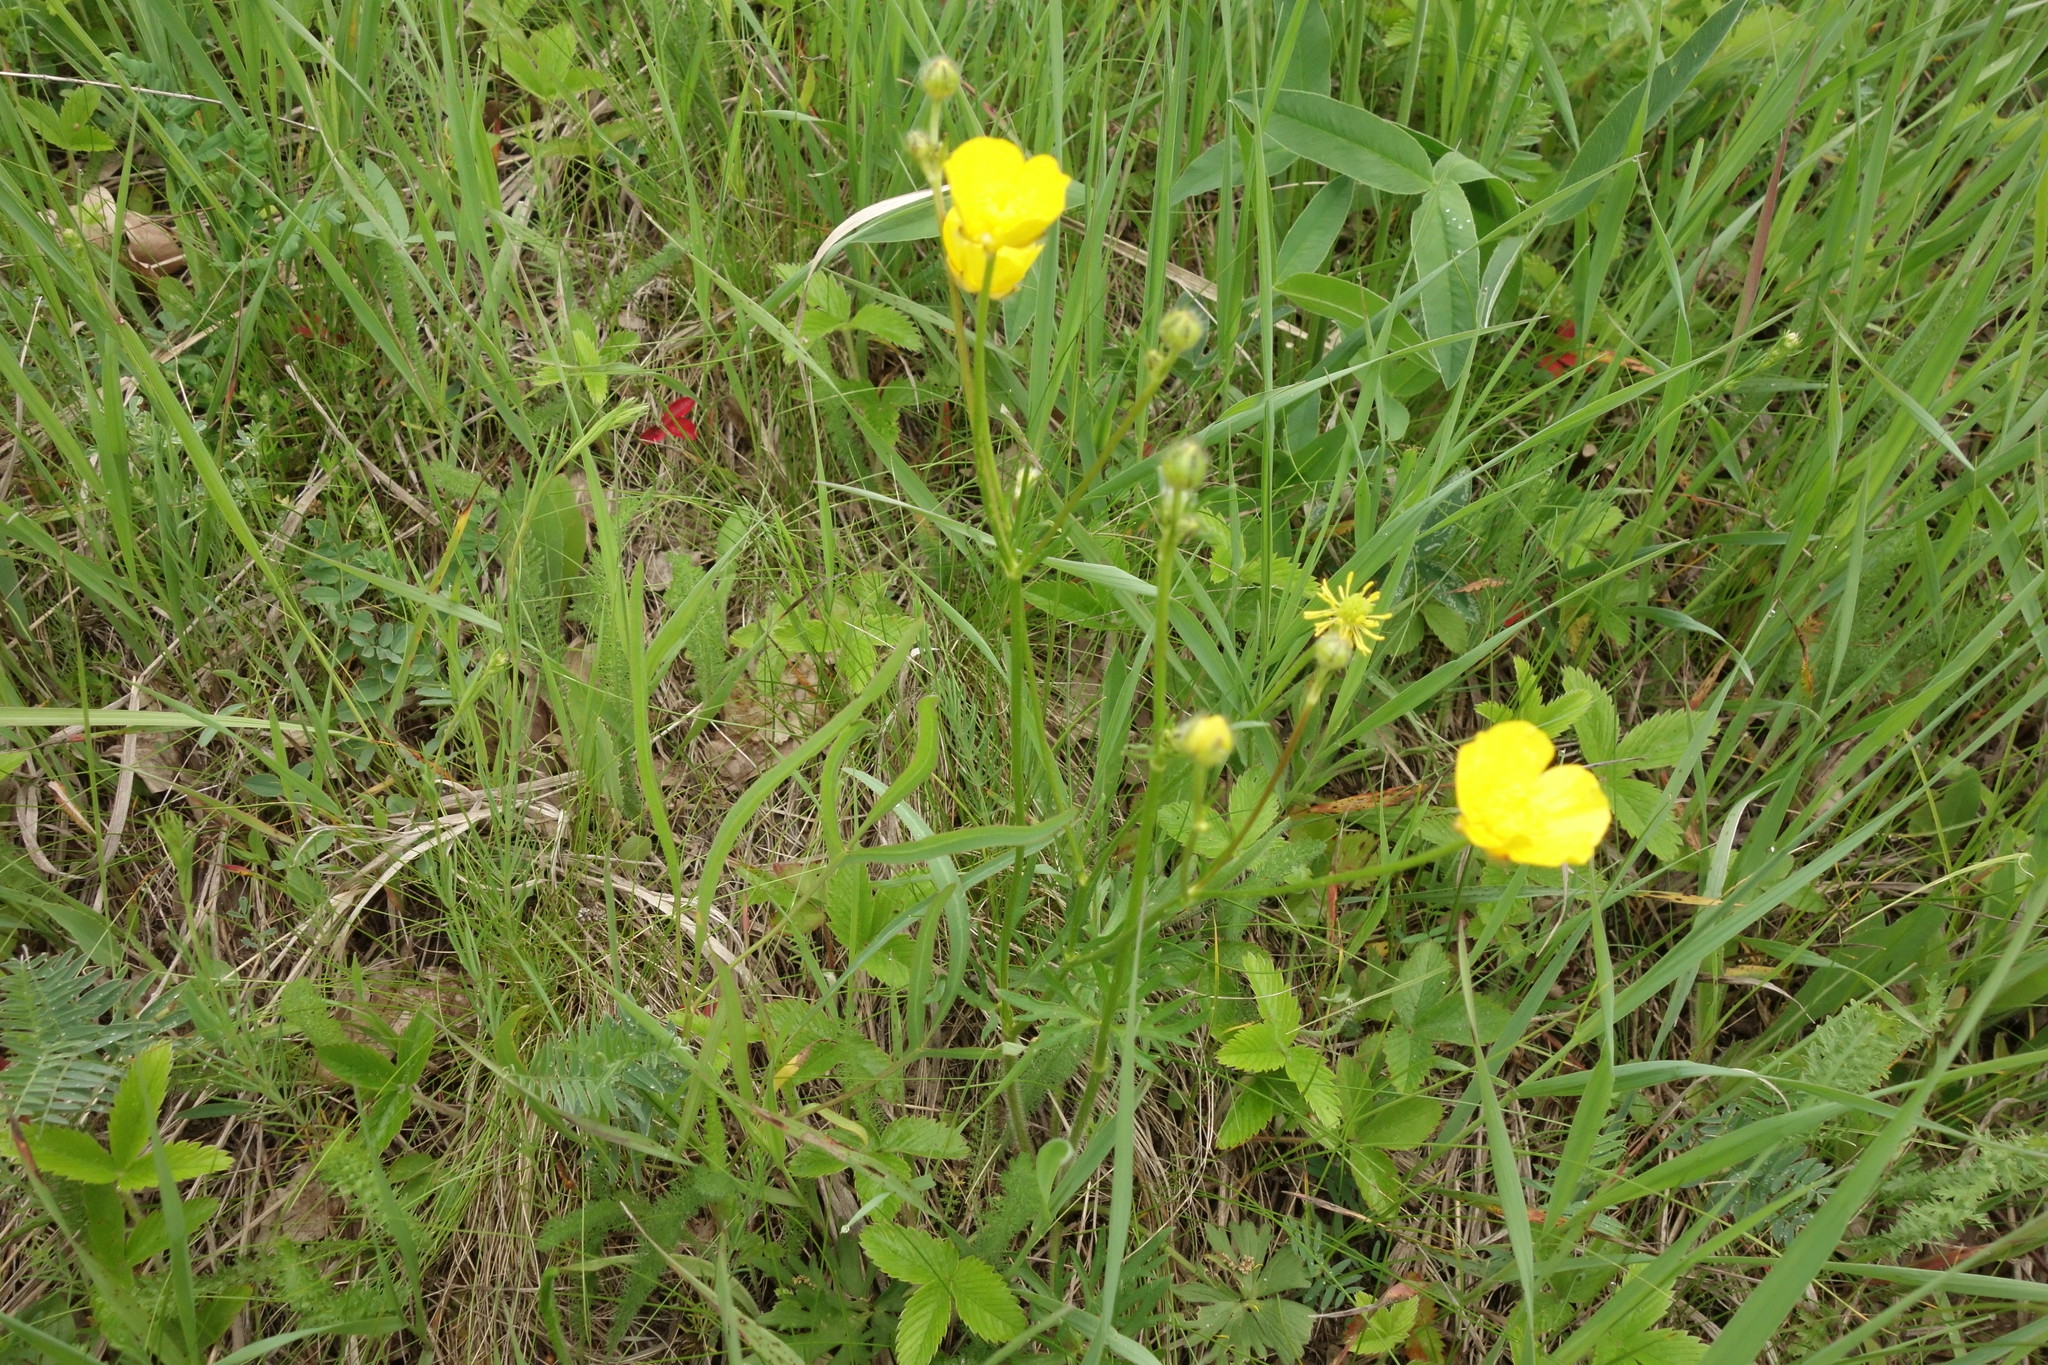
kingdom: Plantae
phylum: Tracheophyta
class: Magnoliopsida
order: Ranunculales
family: Ranunculaceae
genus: Ranunculus
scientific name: Ranunculus polyanthemos
